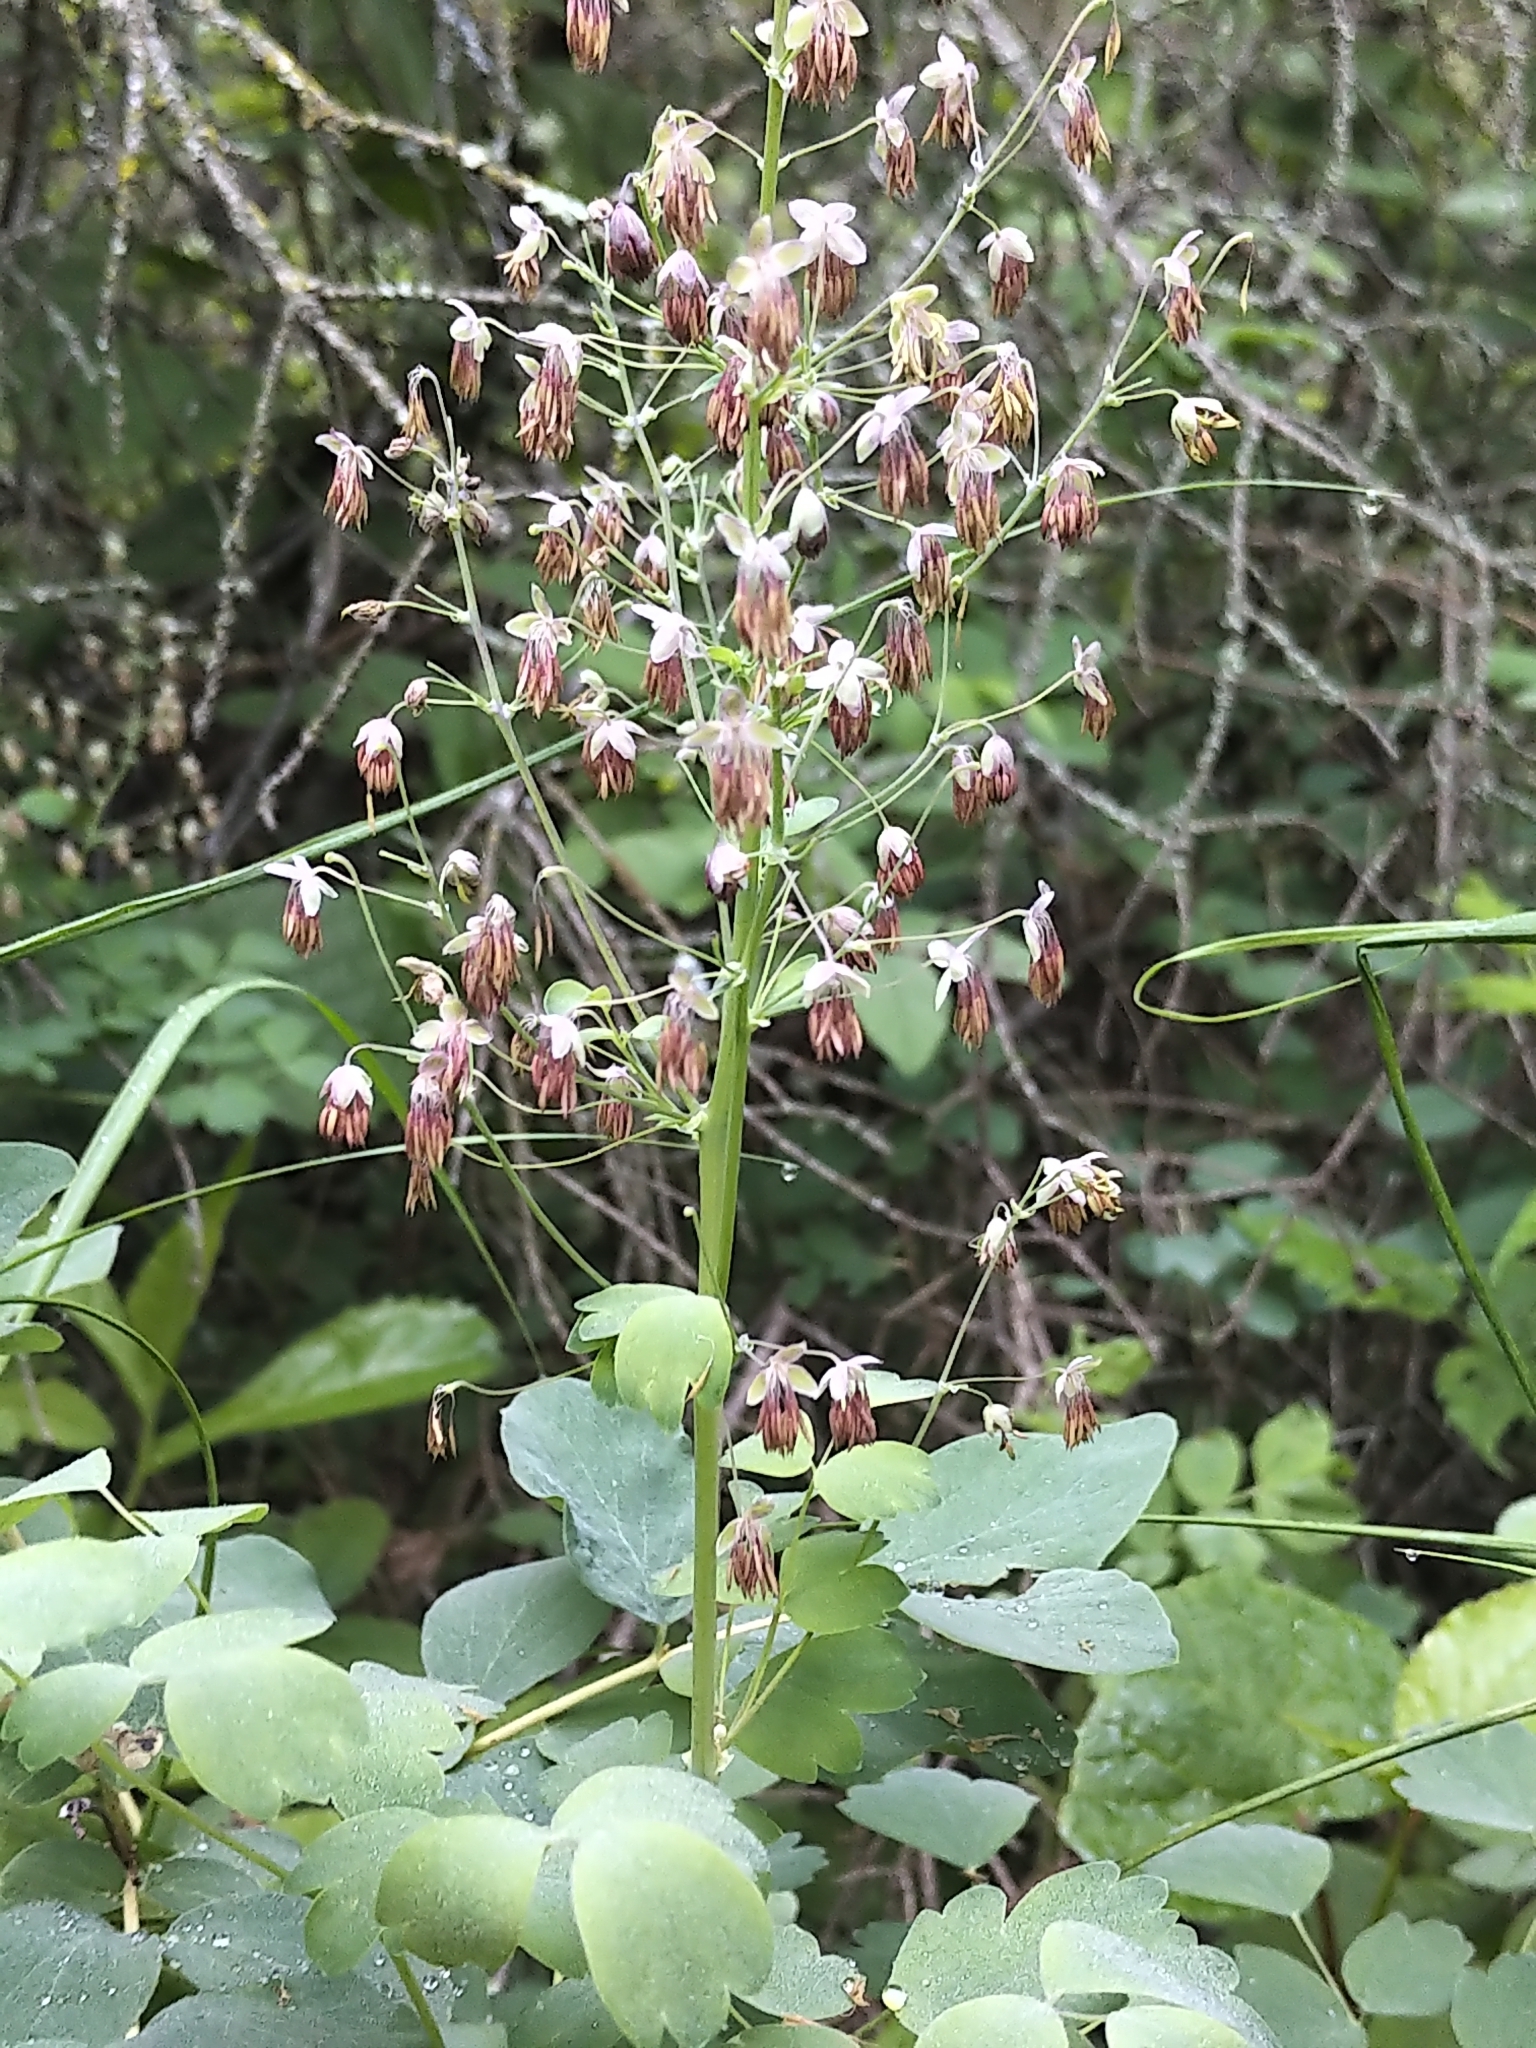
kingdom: Plantae
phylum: Tracheophyta
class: Magnoliopsida
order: Ranunculales
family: Ranunculaceae
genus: Thalictrum
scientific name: Thalictrum venulosum
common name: Early meadow-rue
